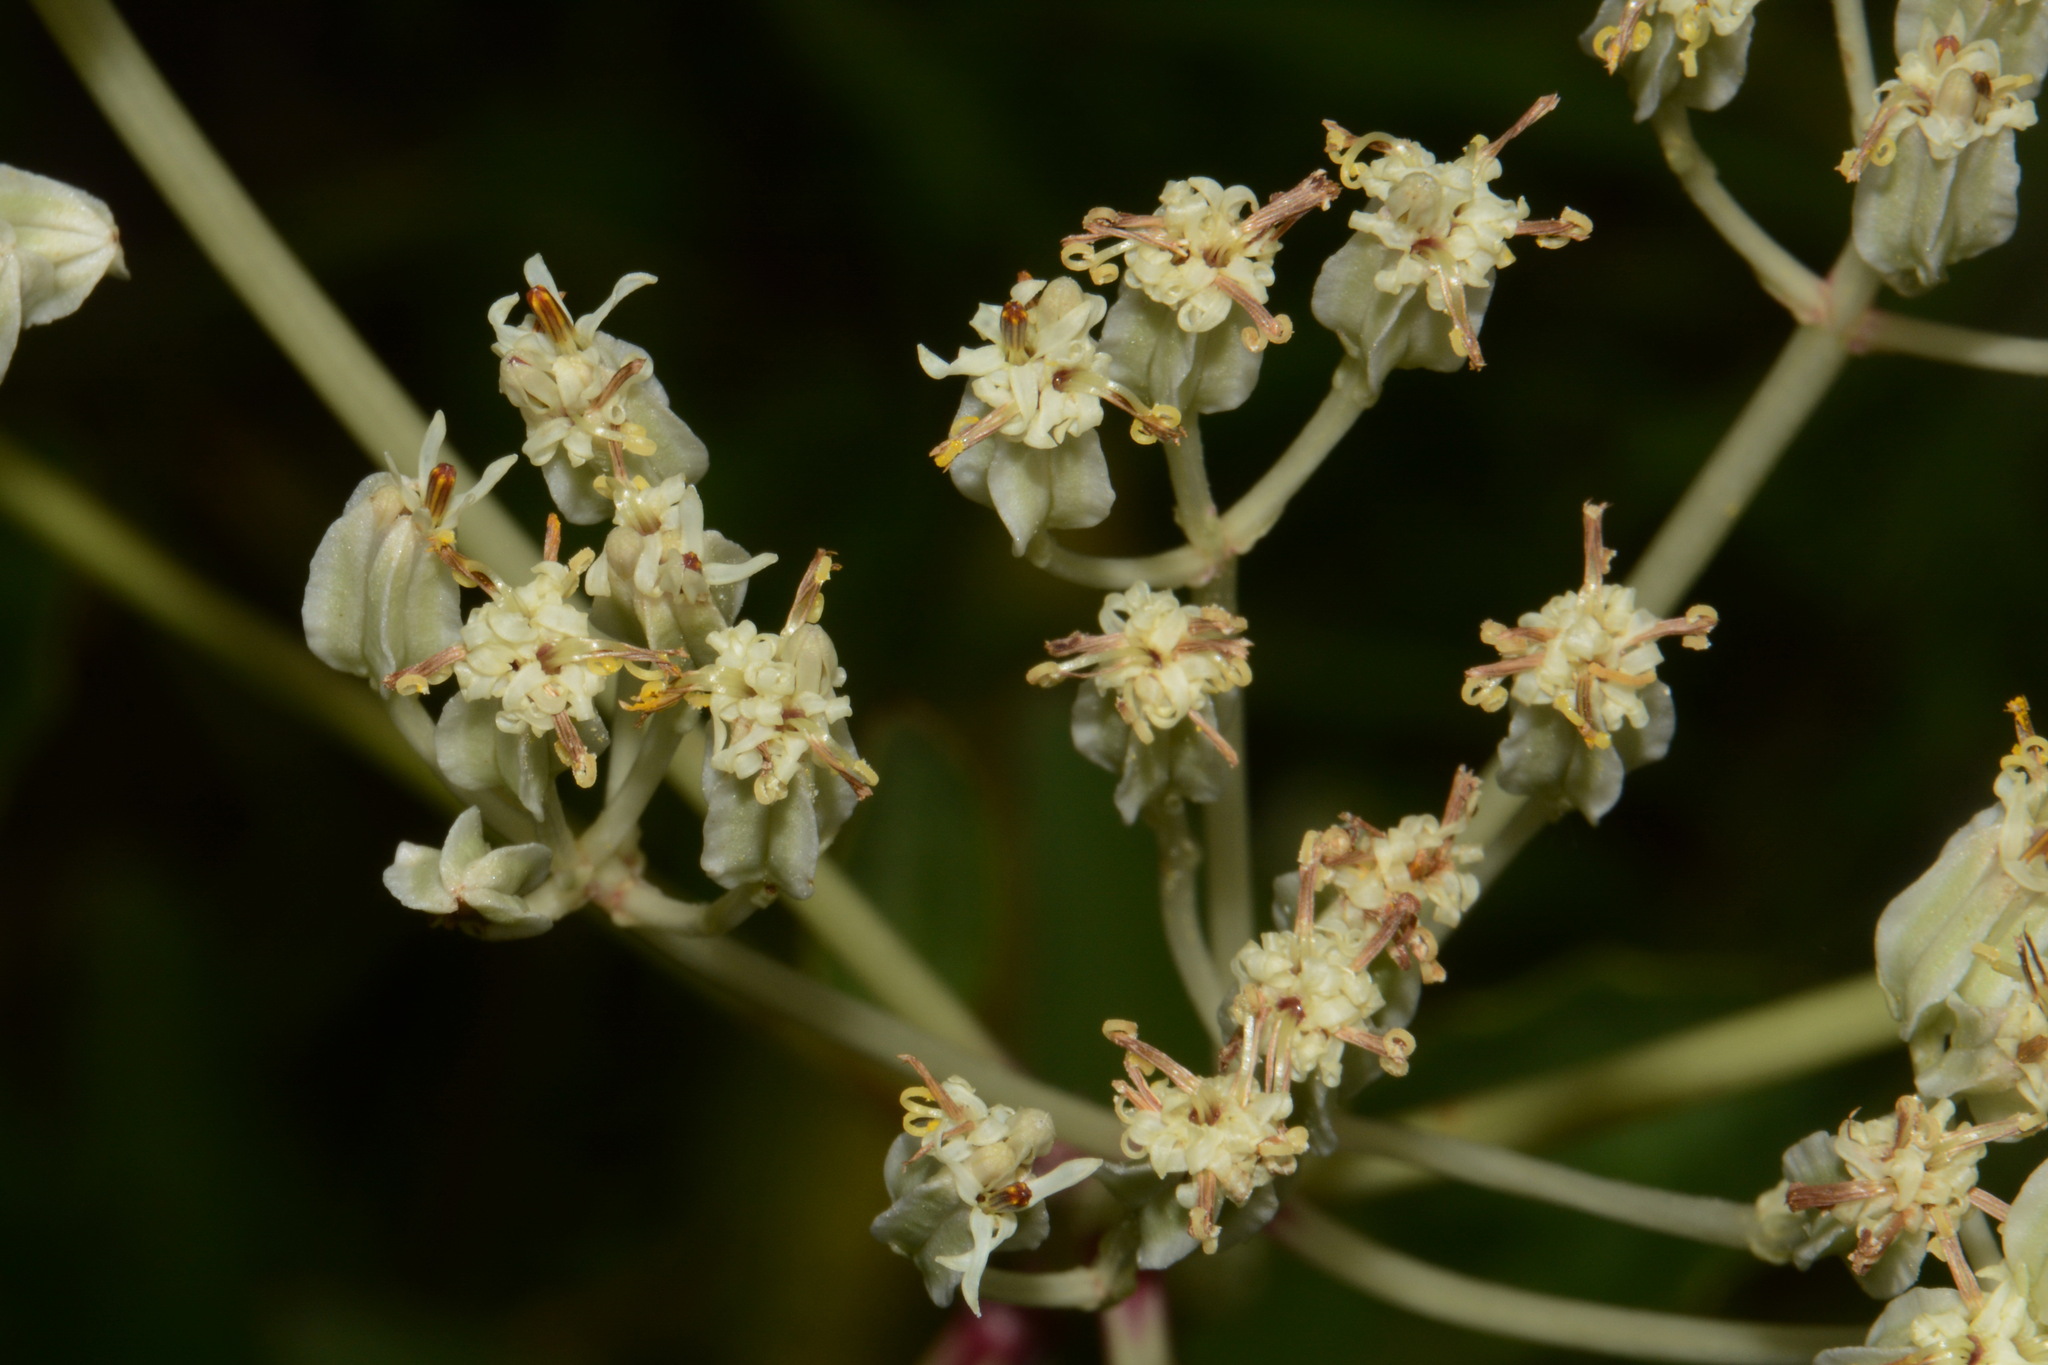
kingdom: Plantae
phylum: Tracheophyta
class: Magnoliopsida
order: Asterales
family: Asteraceae
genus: Arnoglossum
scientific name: Arnoglossum plantagineum
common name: Groove-stemmed indian-plantain
